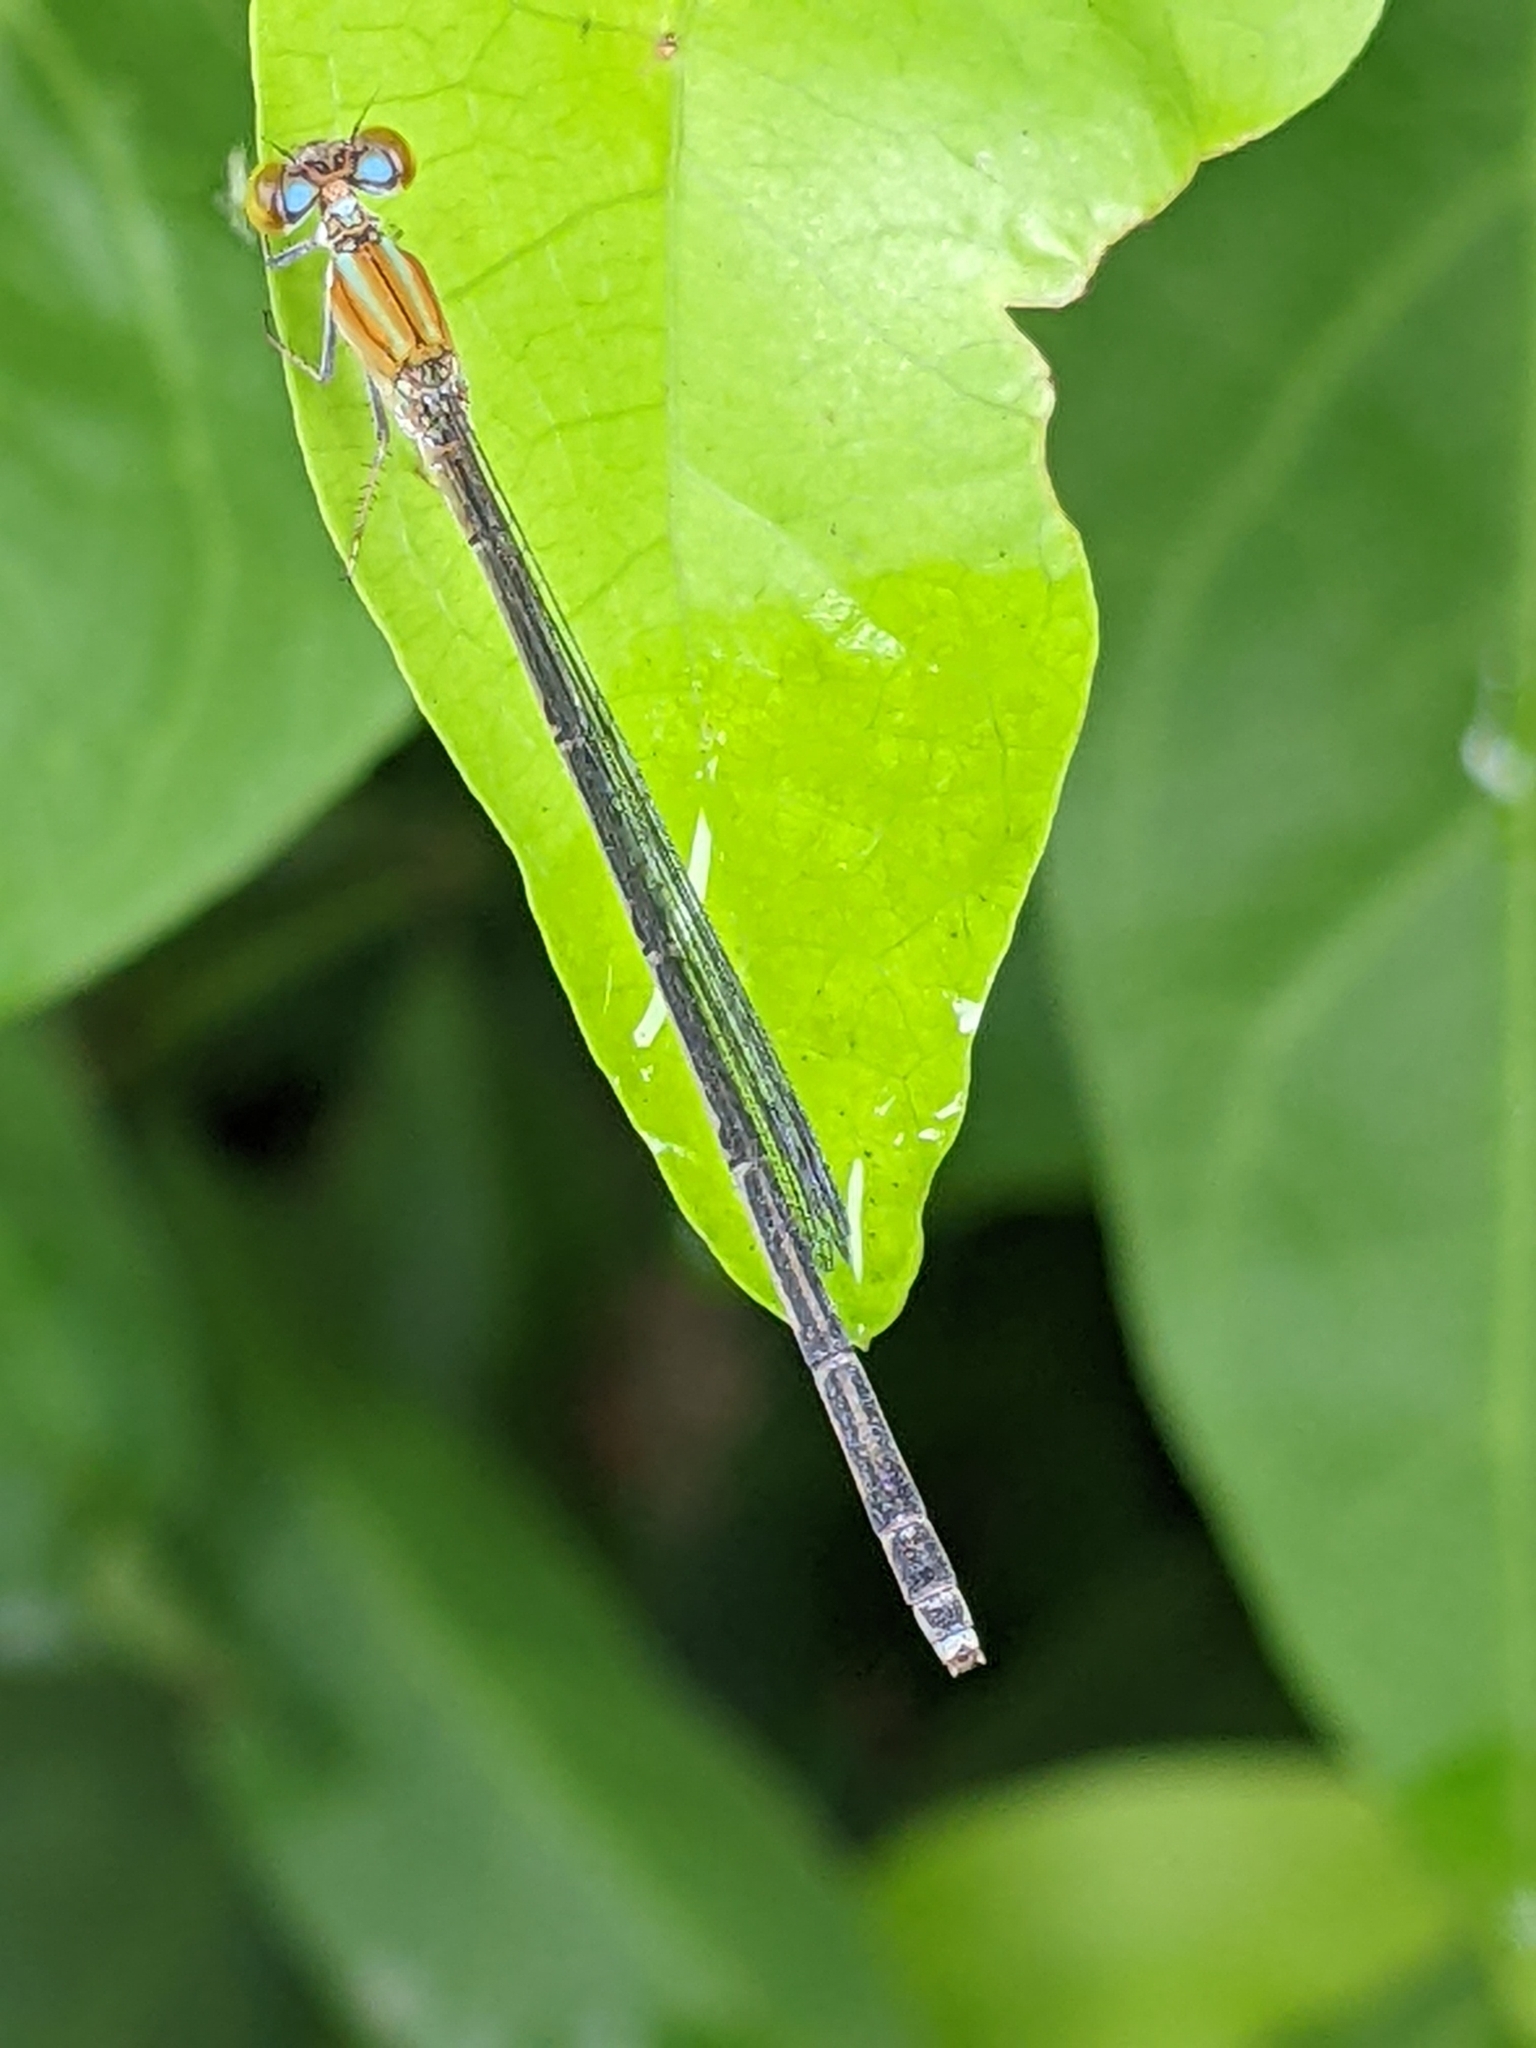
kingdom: Animalia
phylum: Arthropoda
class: Insecta
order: Odonata
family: Coenagrionidae
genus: Pseudagrion
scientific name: Pseudagrion microcephalum
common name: Blue riverdamsel
